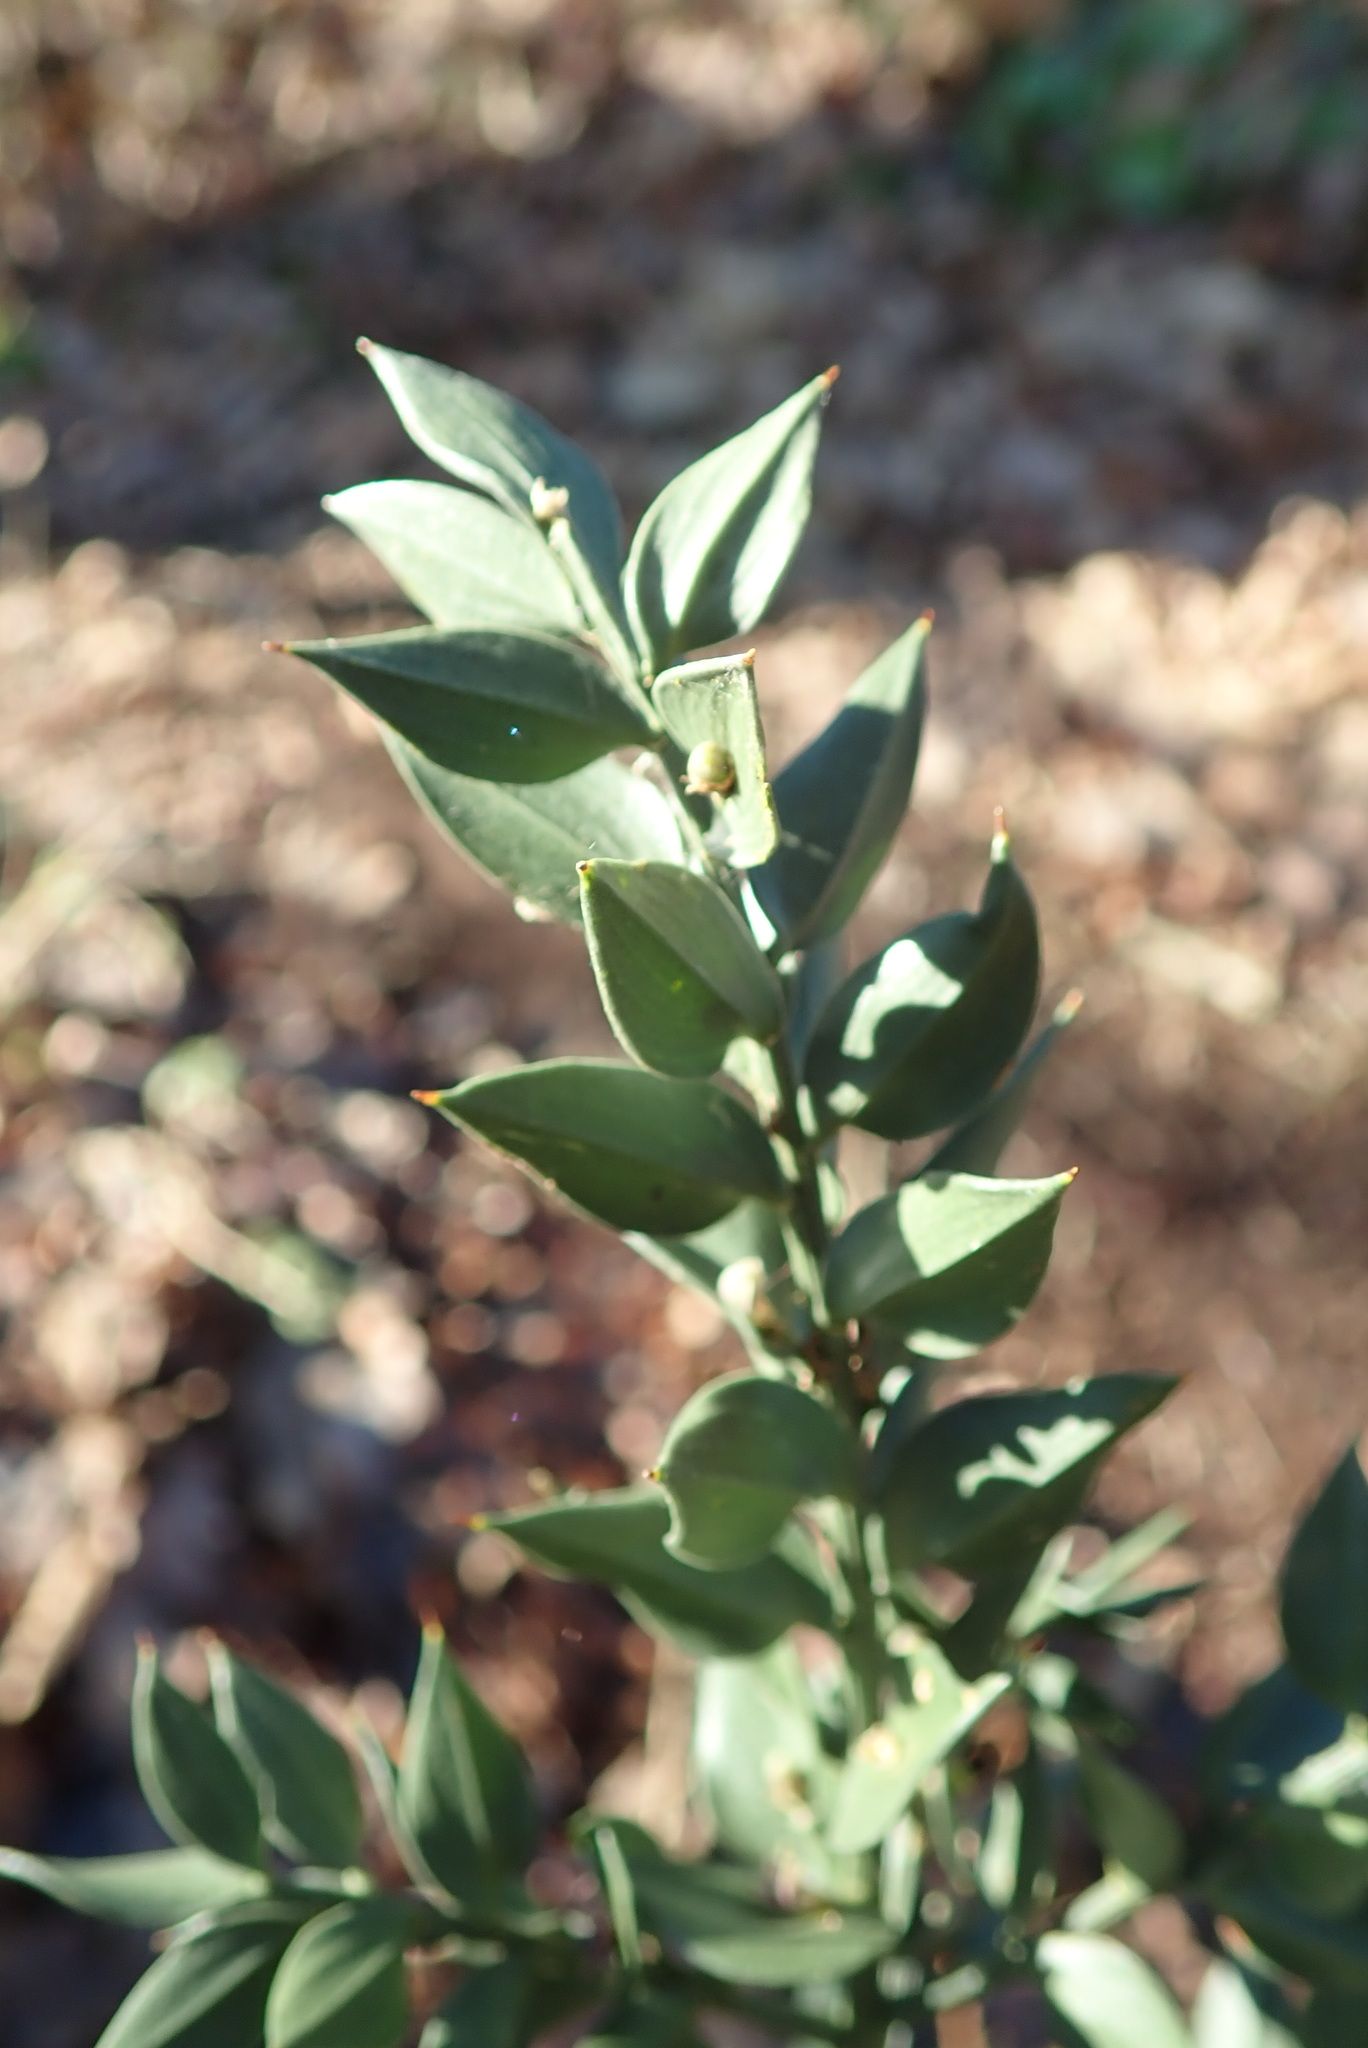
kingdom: Plantae
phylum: Tracheophyta
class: Liliopsida
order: Asparagales
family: Asparagaceae
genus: Ruscus
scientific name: Ruscus aculeatus
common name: Butcher's-broom
